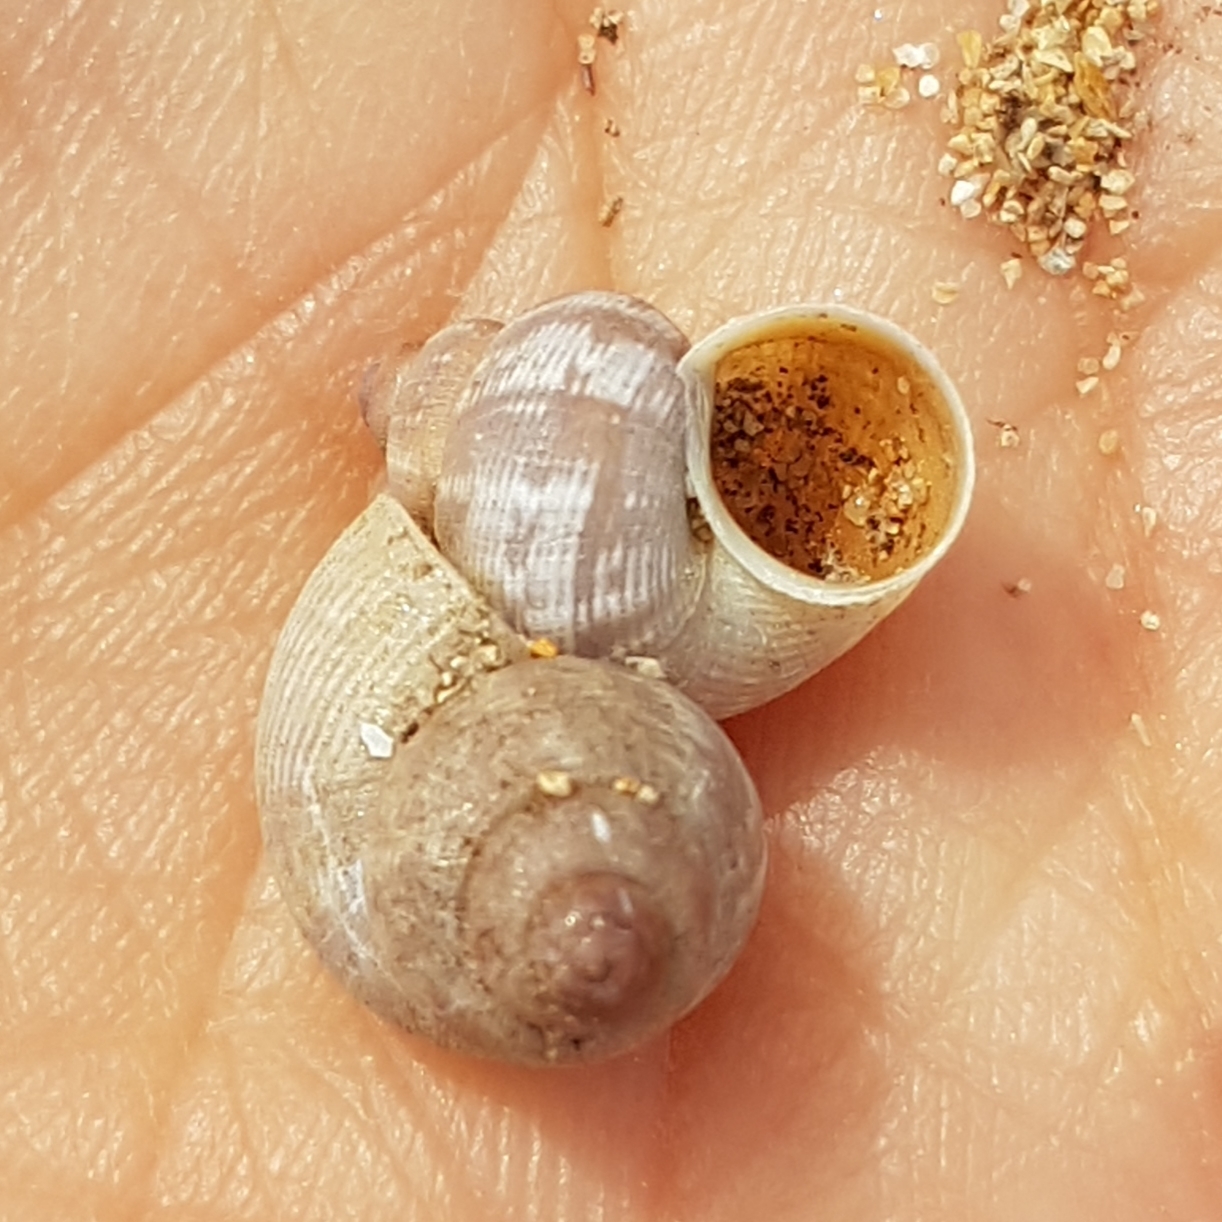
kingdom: Animalia
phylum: Mollusca
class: Gastropoda
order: Littorinimorpha
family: Pomatiidae
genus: Pomatias
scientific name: Pomatias elegans
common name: Red-mouthed snail
